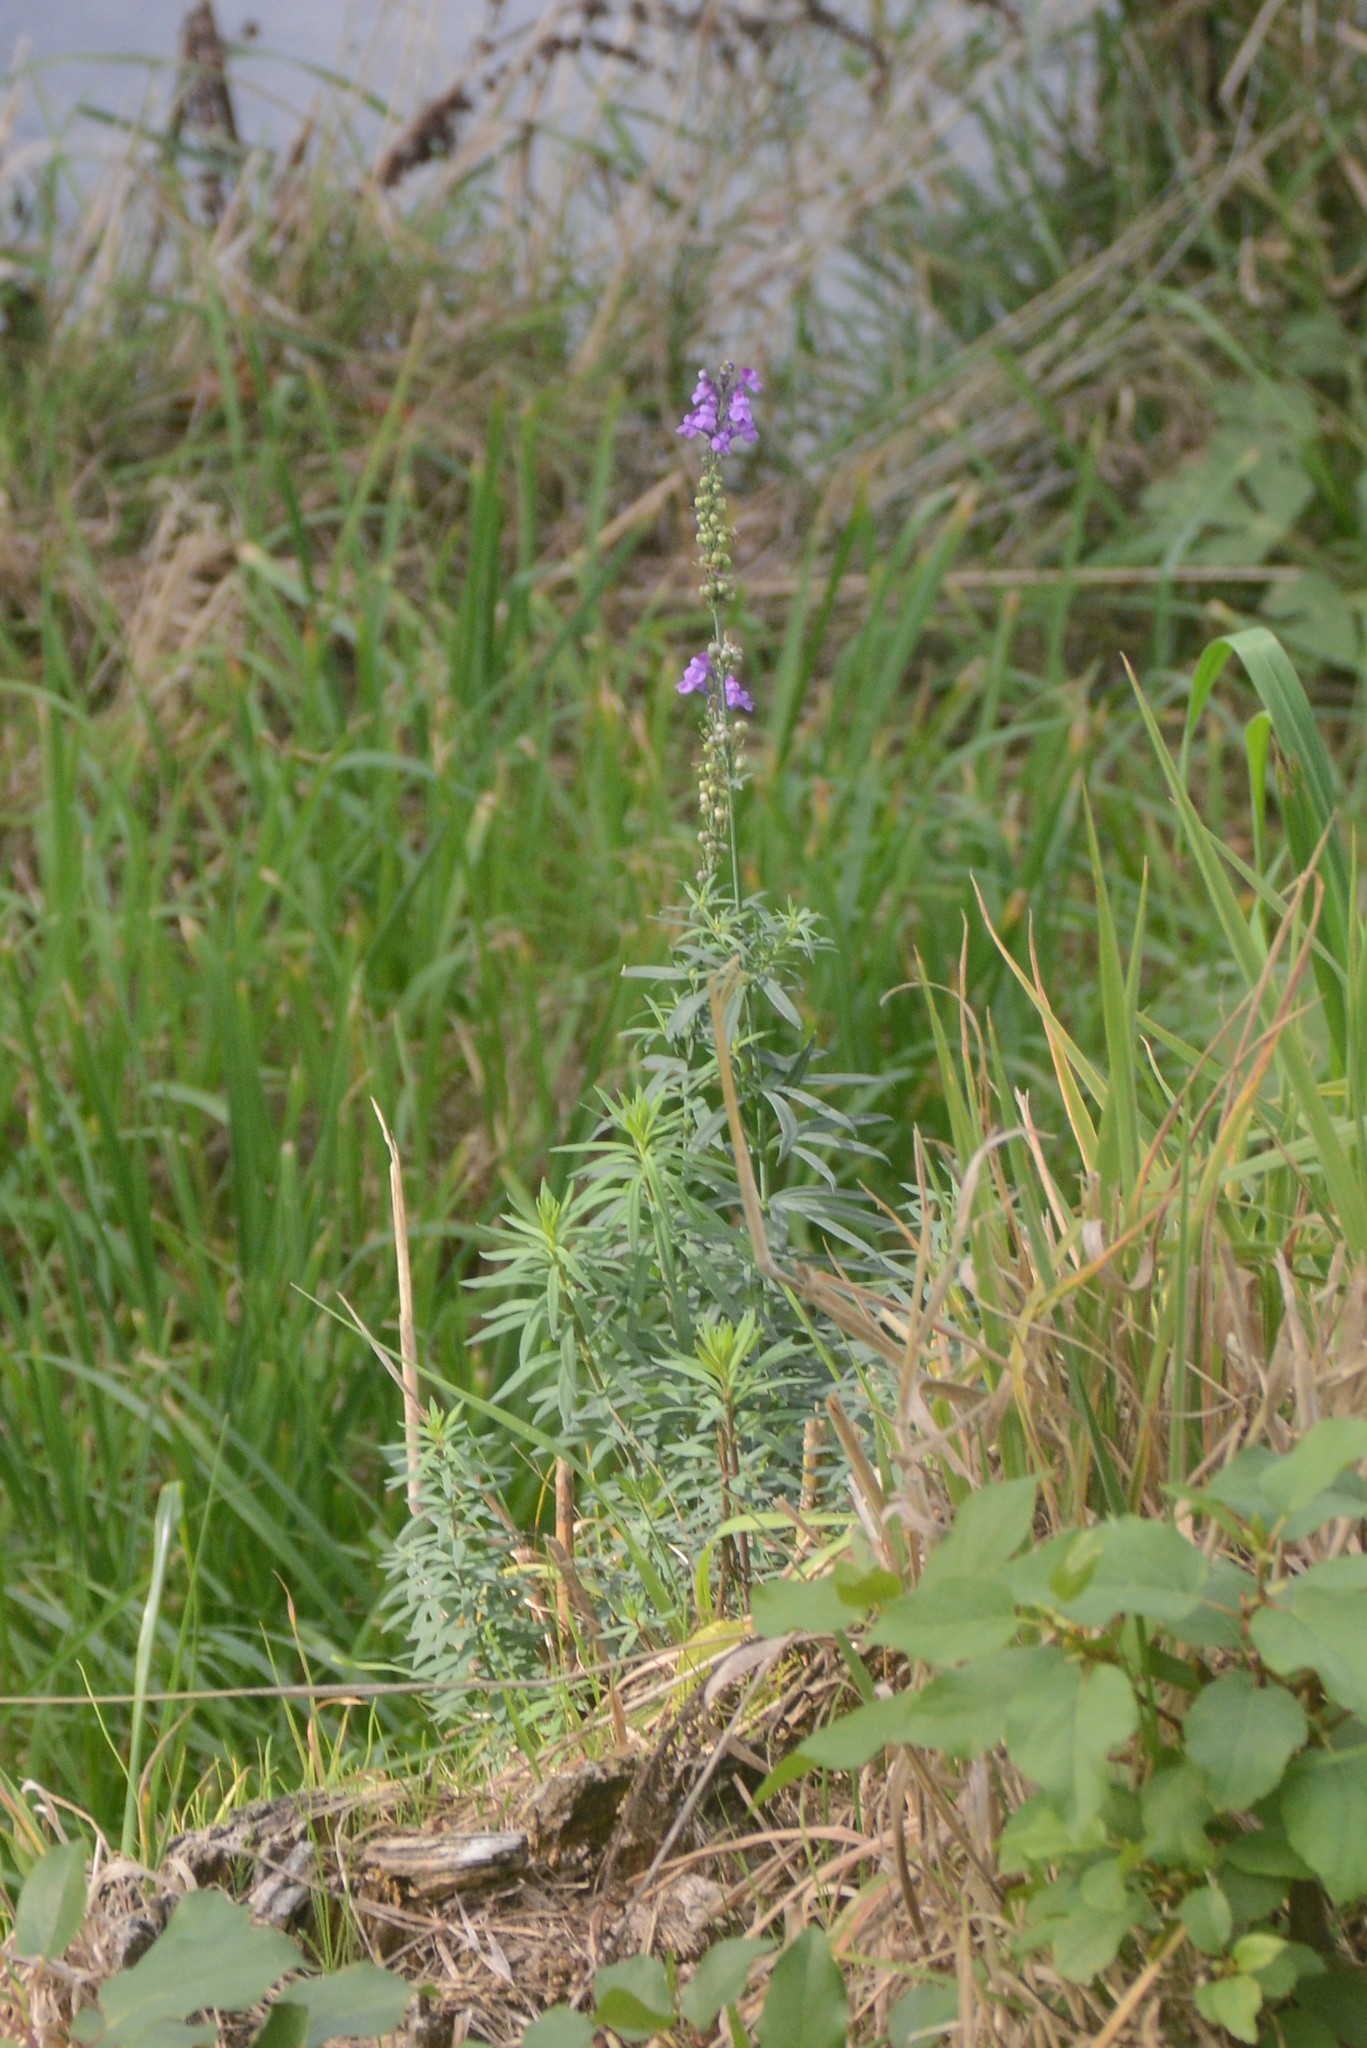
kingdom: Plantae
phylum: Tracheophyta
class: Magnoliopsida
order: Lamiales
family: Plantaginaceae
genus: Linaria
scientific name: Linaria purpurea
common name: Purple toadflax
